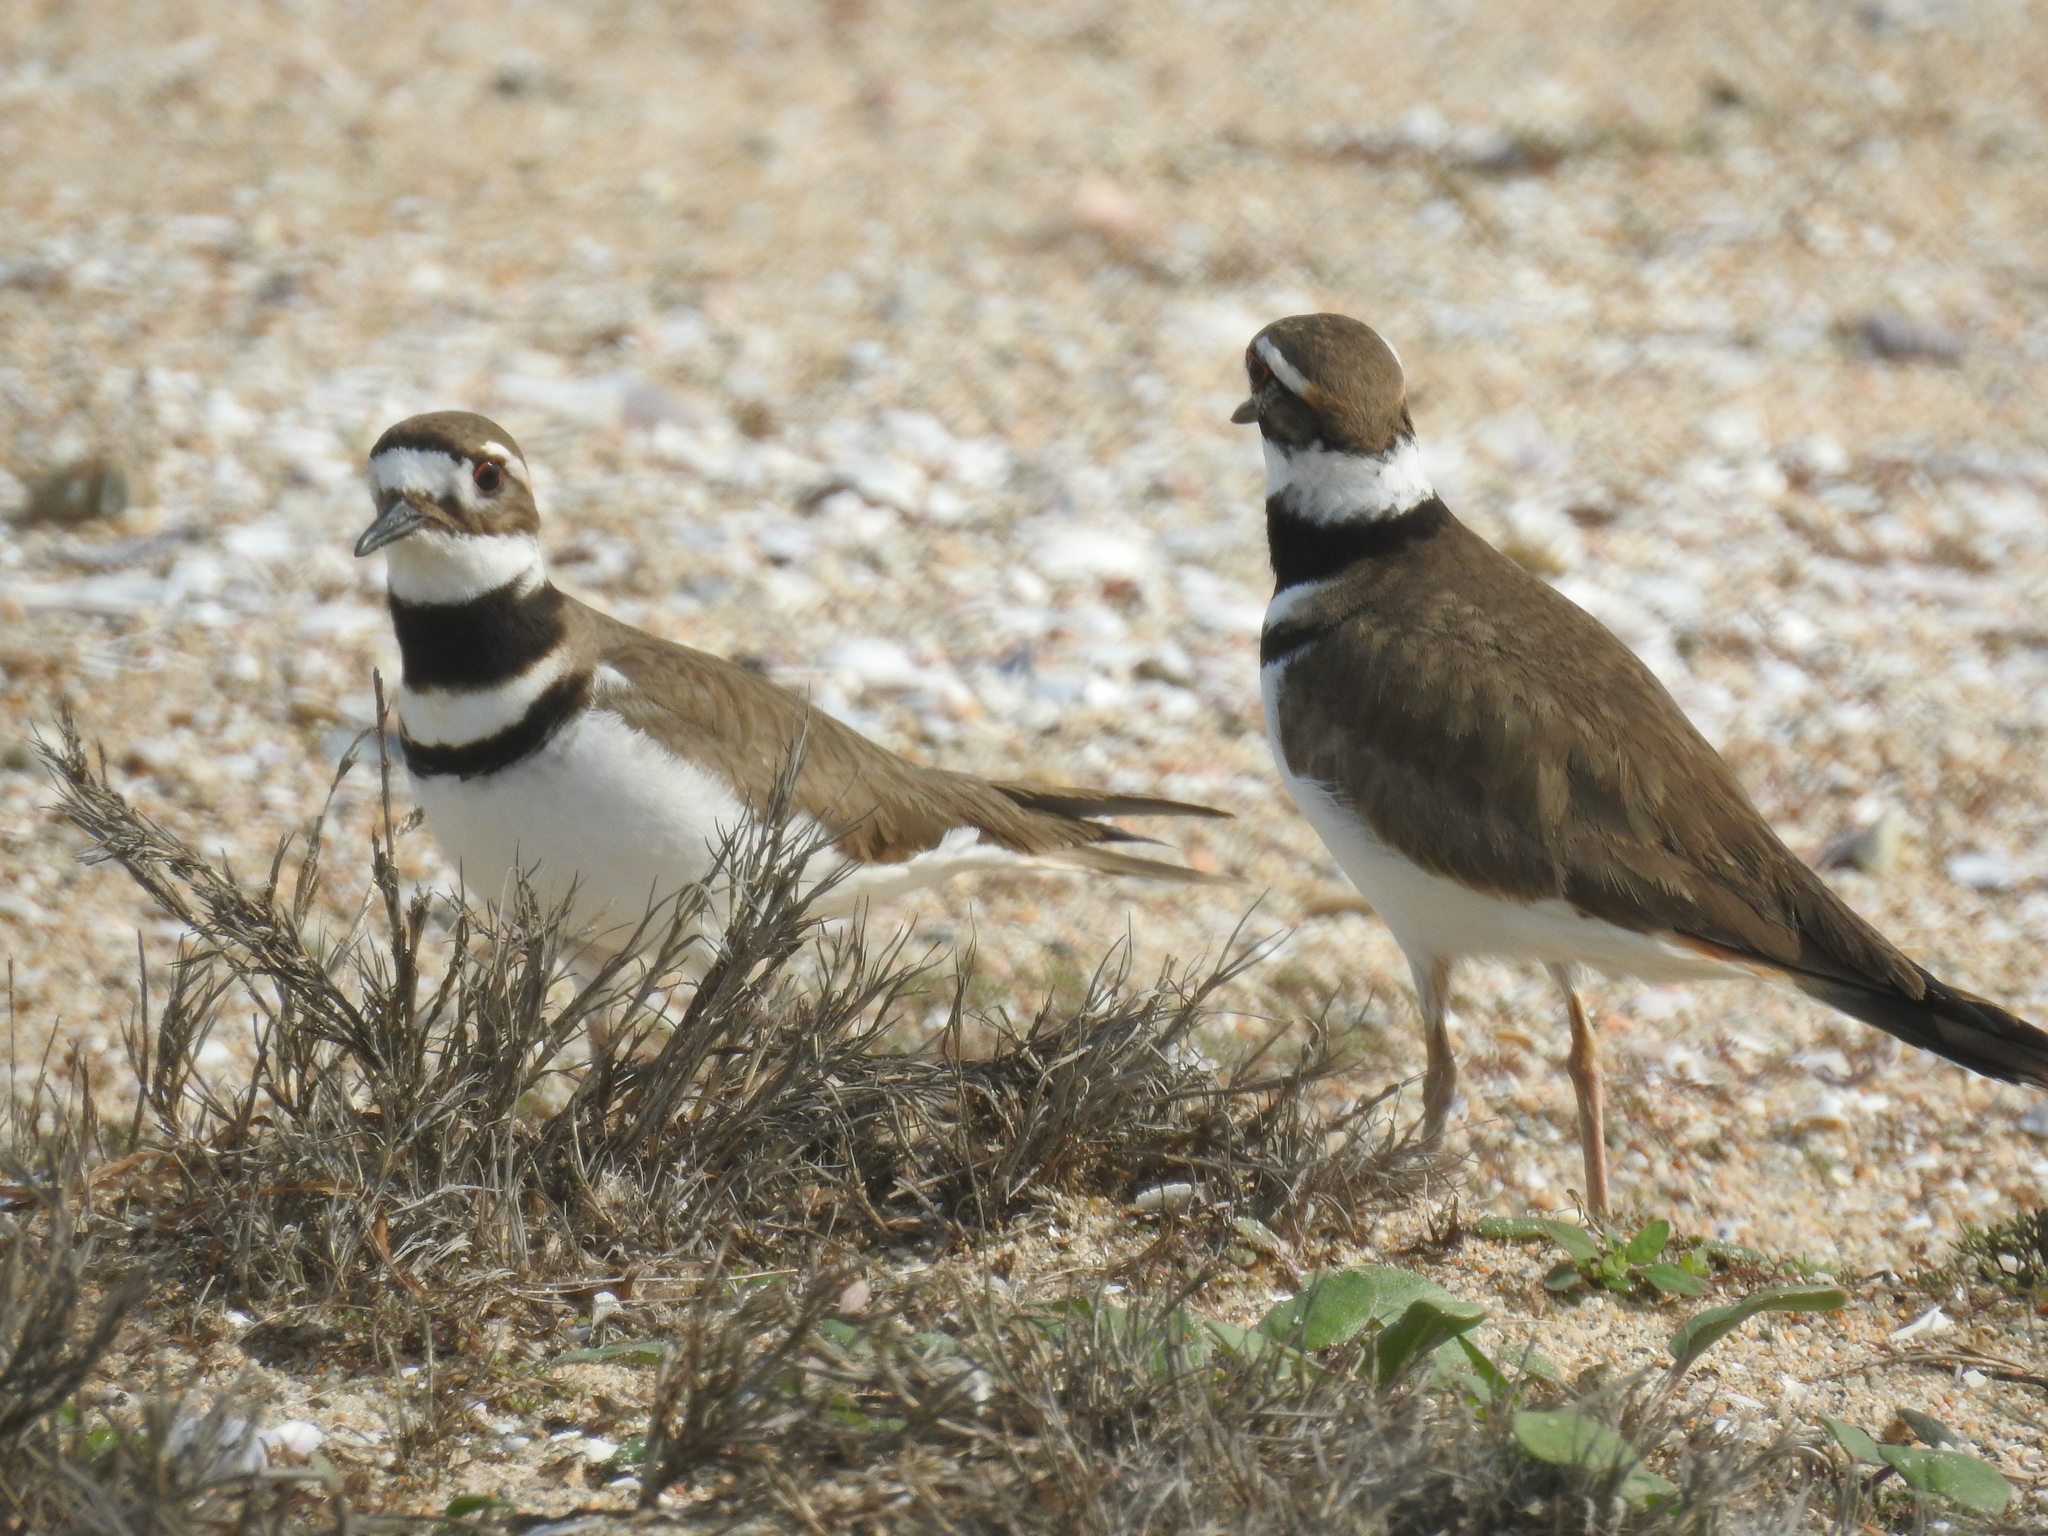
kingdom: Animalia
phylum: Chordata
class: Aves
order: Charadriiformes
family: Charadriidae
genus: Charadrius
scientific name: Charadrius vociferus
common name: Killdeer
